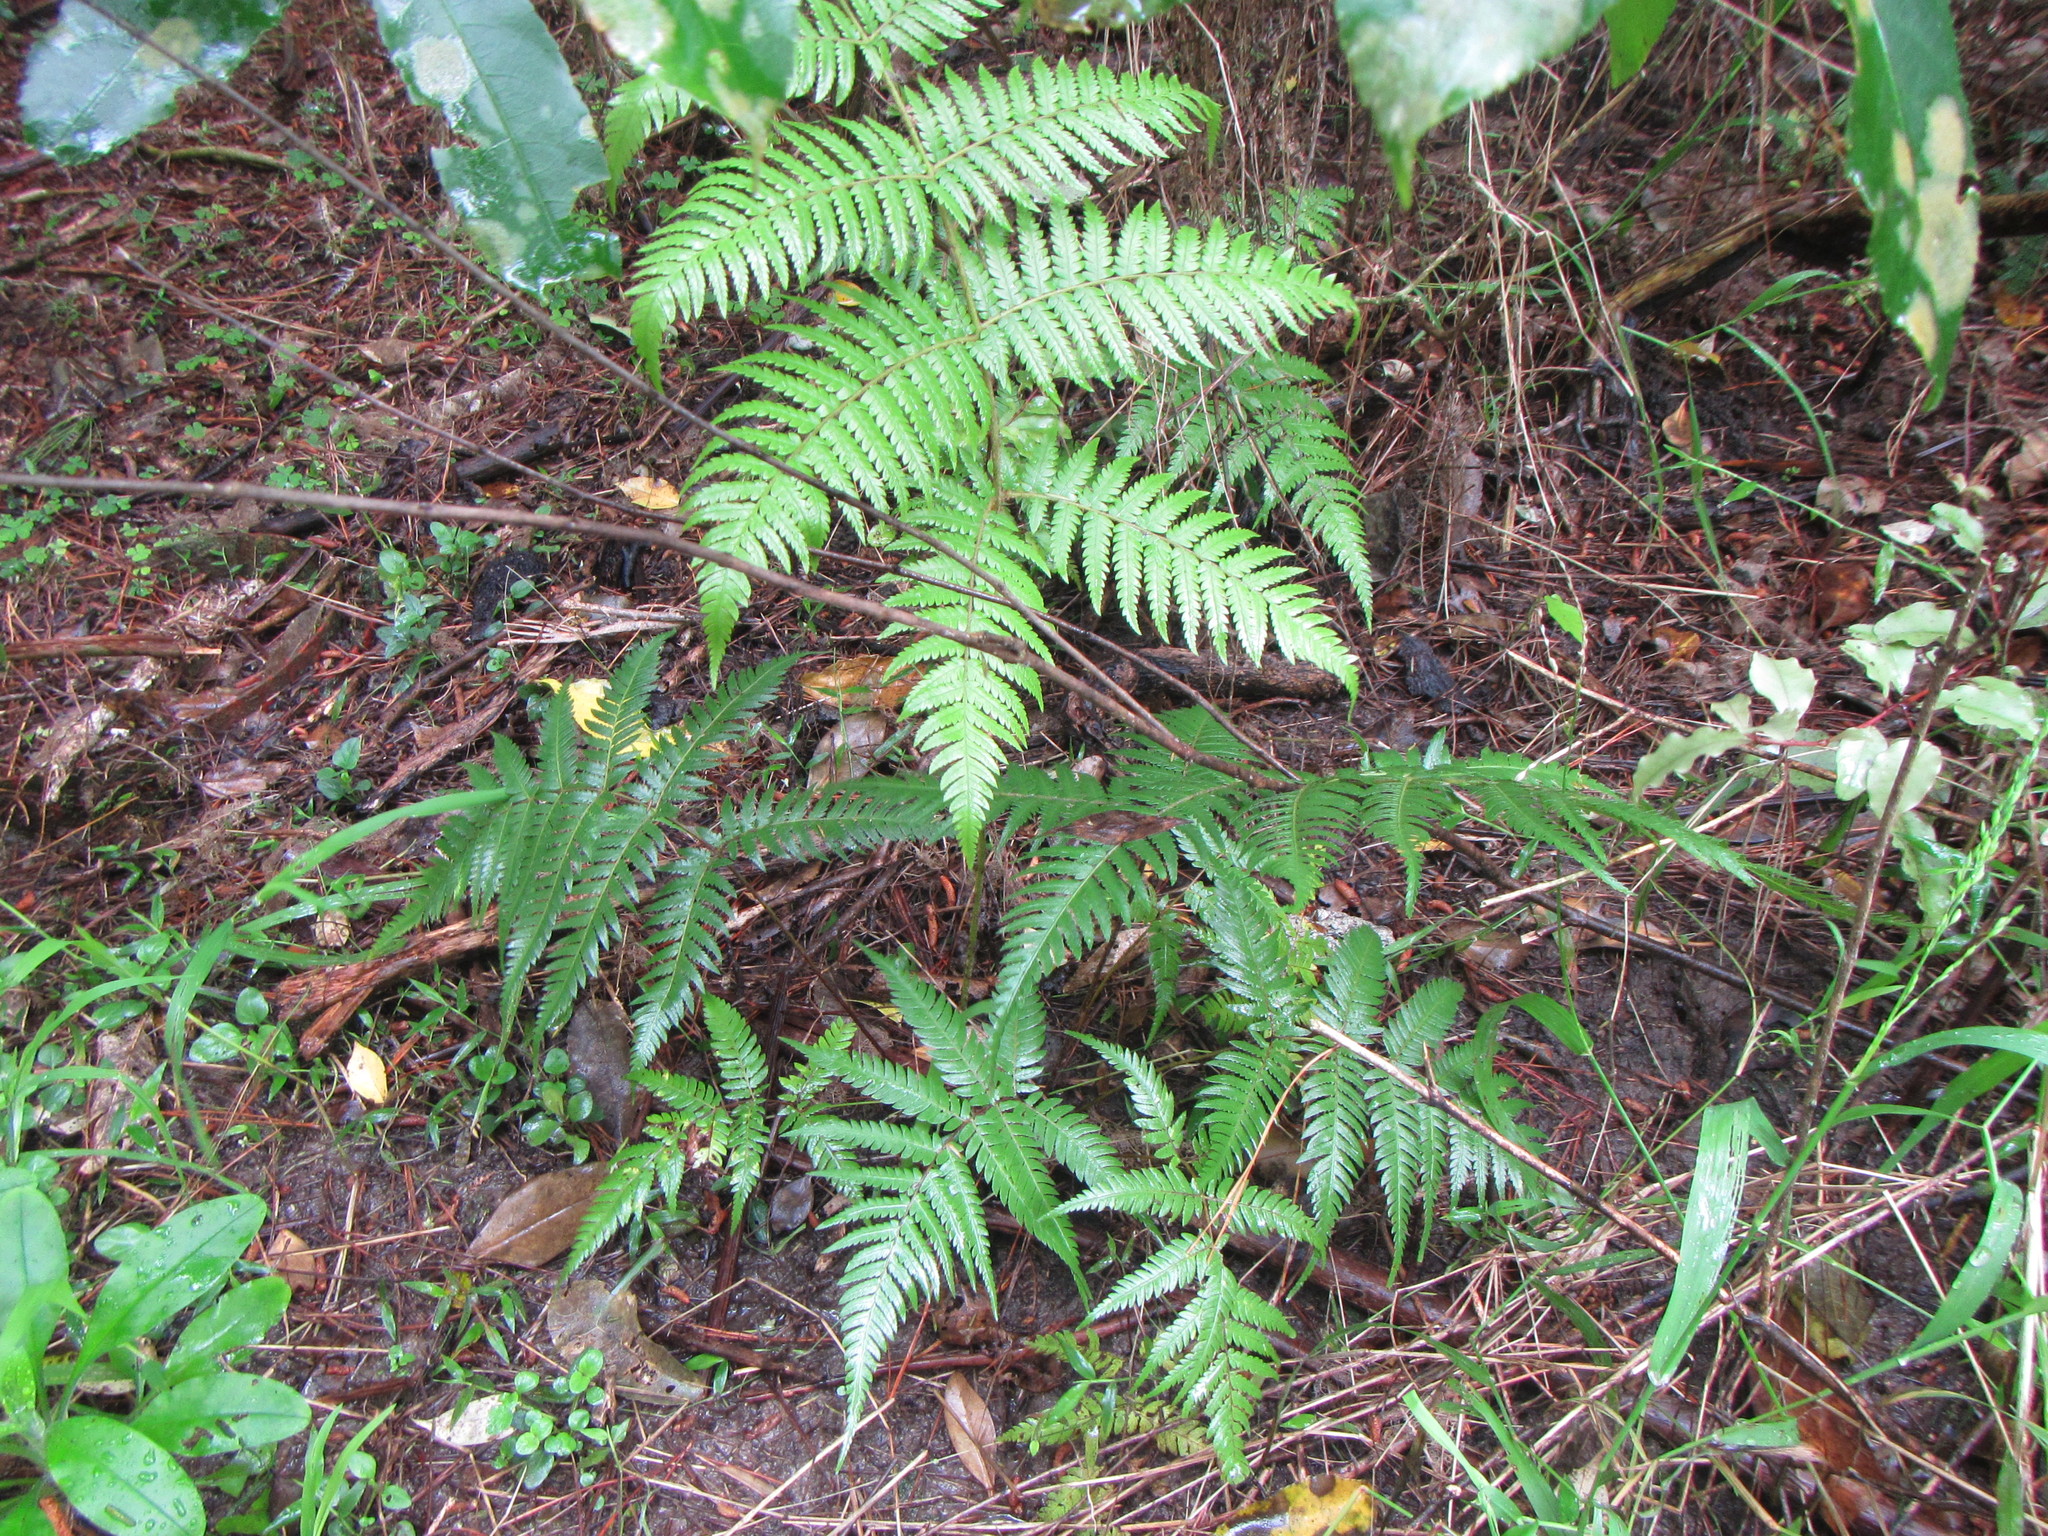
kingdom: Plantae
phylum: Tracheophyta
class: Polypodiopsida
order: Cyatheales
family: Cyatheaceae
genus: Alsophila
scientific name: Alsophila dealbata
